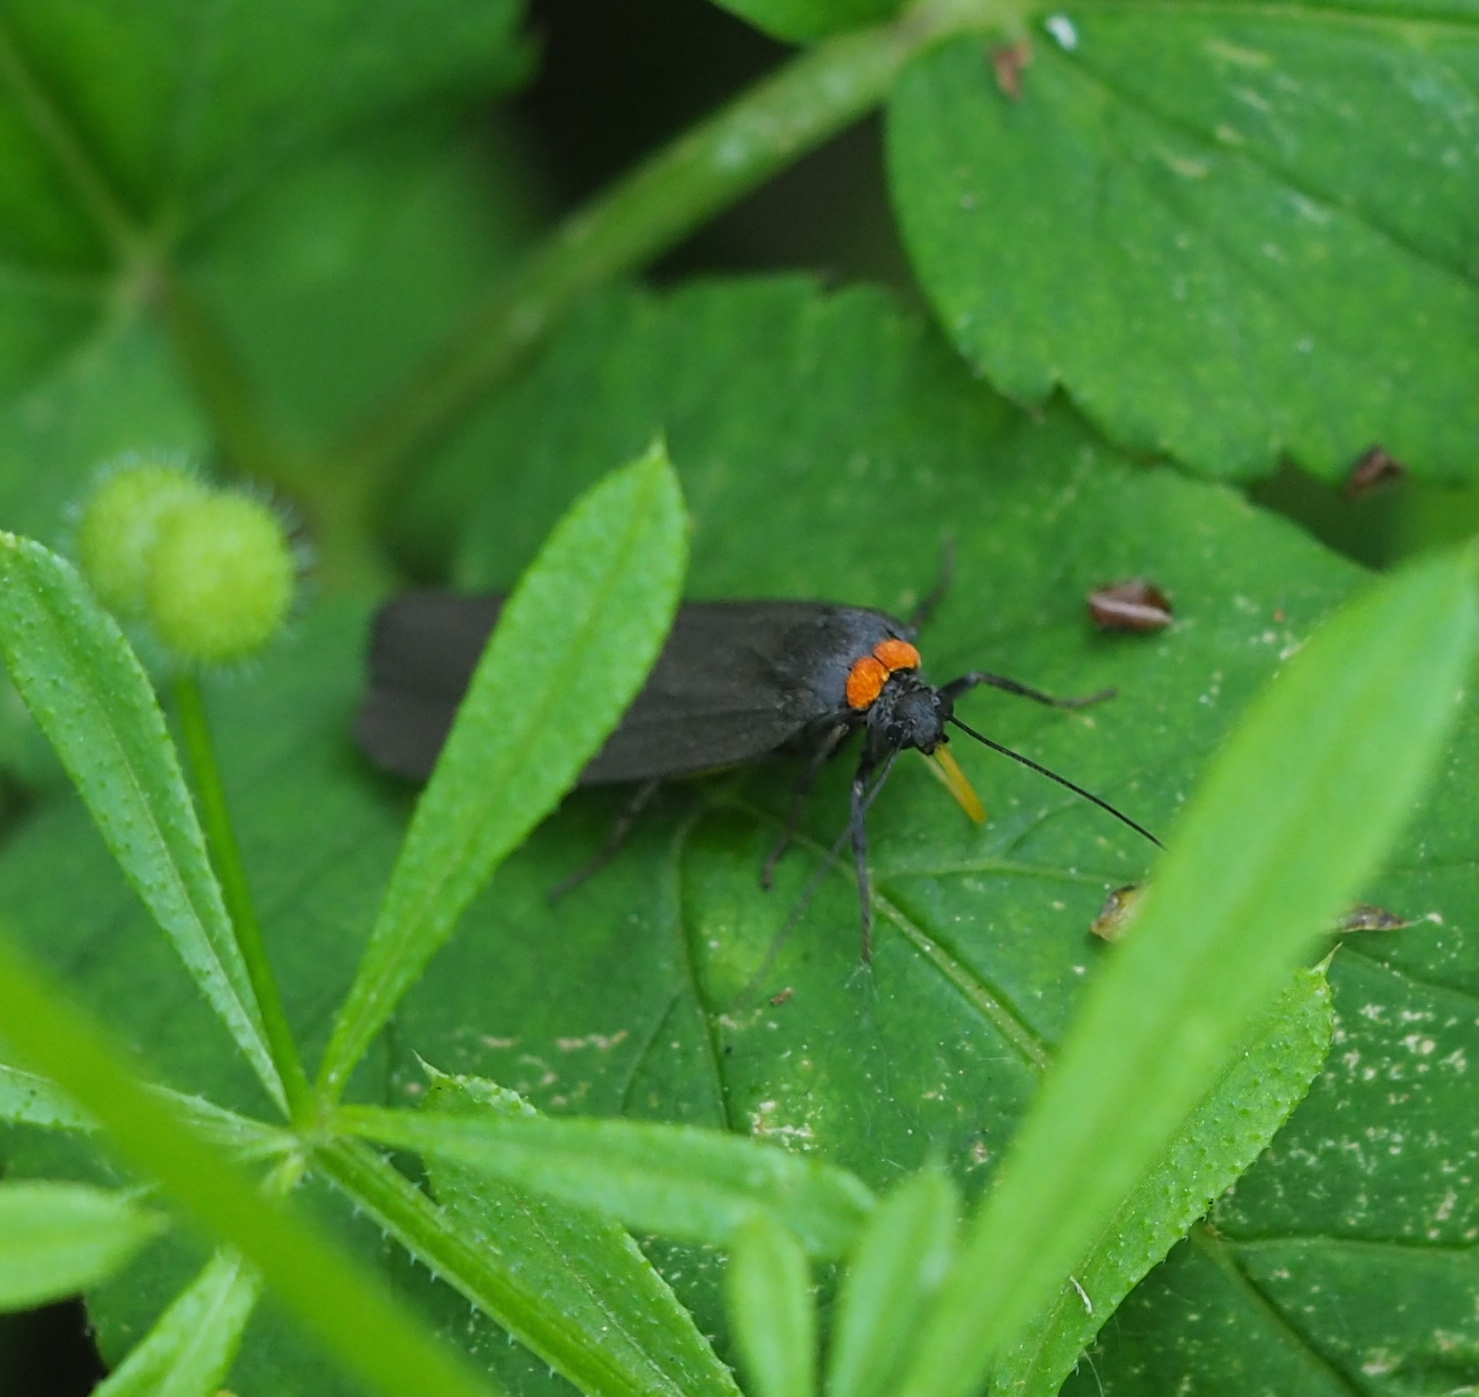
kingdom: Animalia
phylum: Arthropoda
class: Insecta
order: Lepidoptera
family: Erebidae
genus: Atolmis
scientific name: Atolmis rubricollis
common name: Red-necked footman
